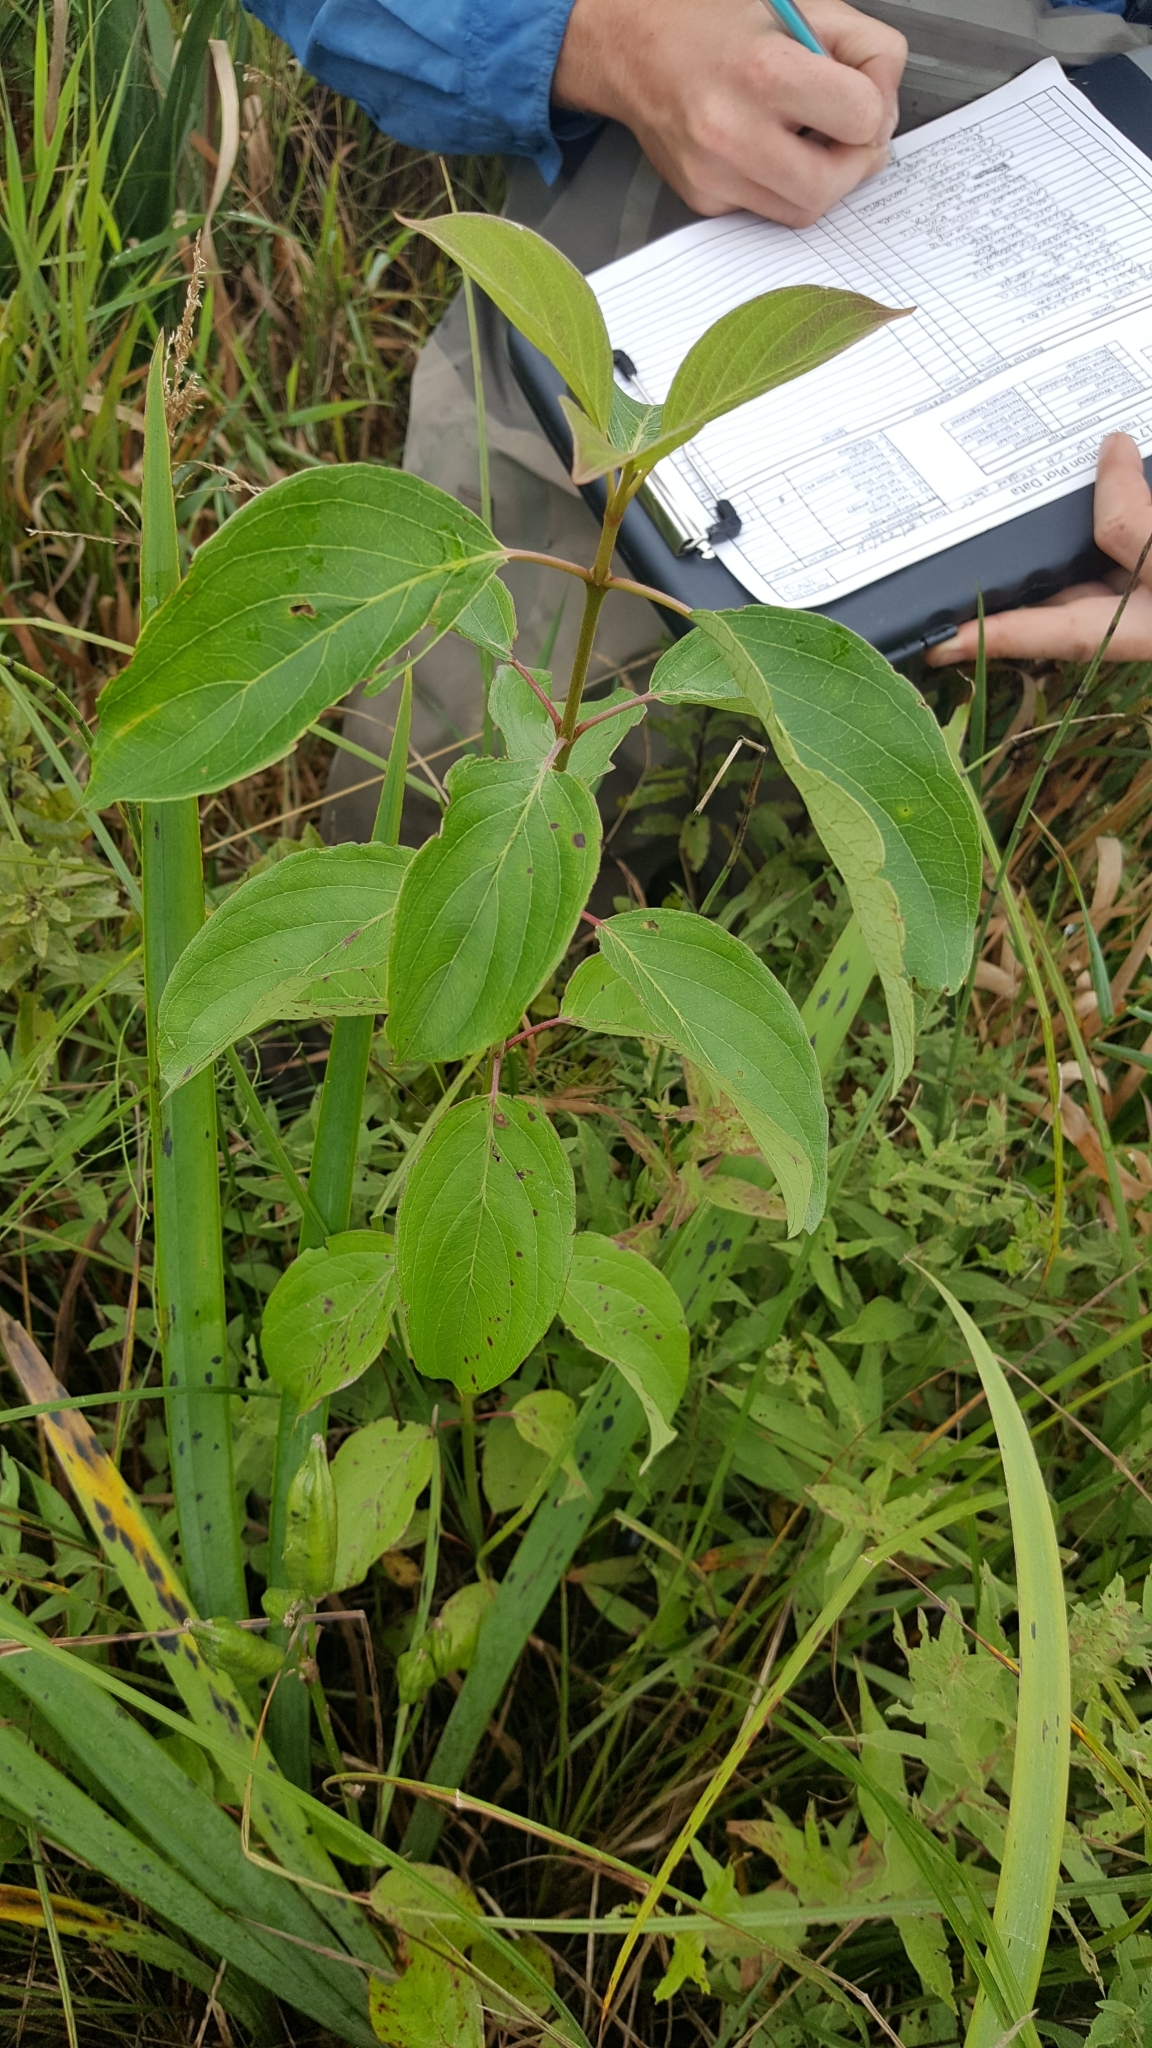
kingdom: Plantae
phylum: Tracheophyta
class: Magnoliopsida
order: Gentianales
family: Rubiaceae
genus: Cephalanthus
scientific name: Cephalanthus occidentalis
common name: Button-willow
